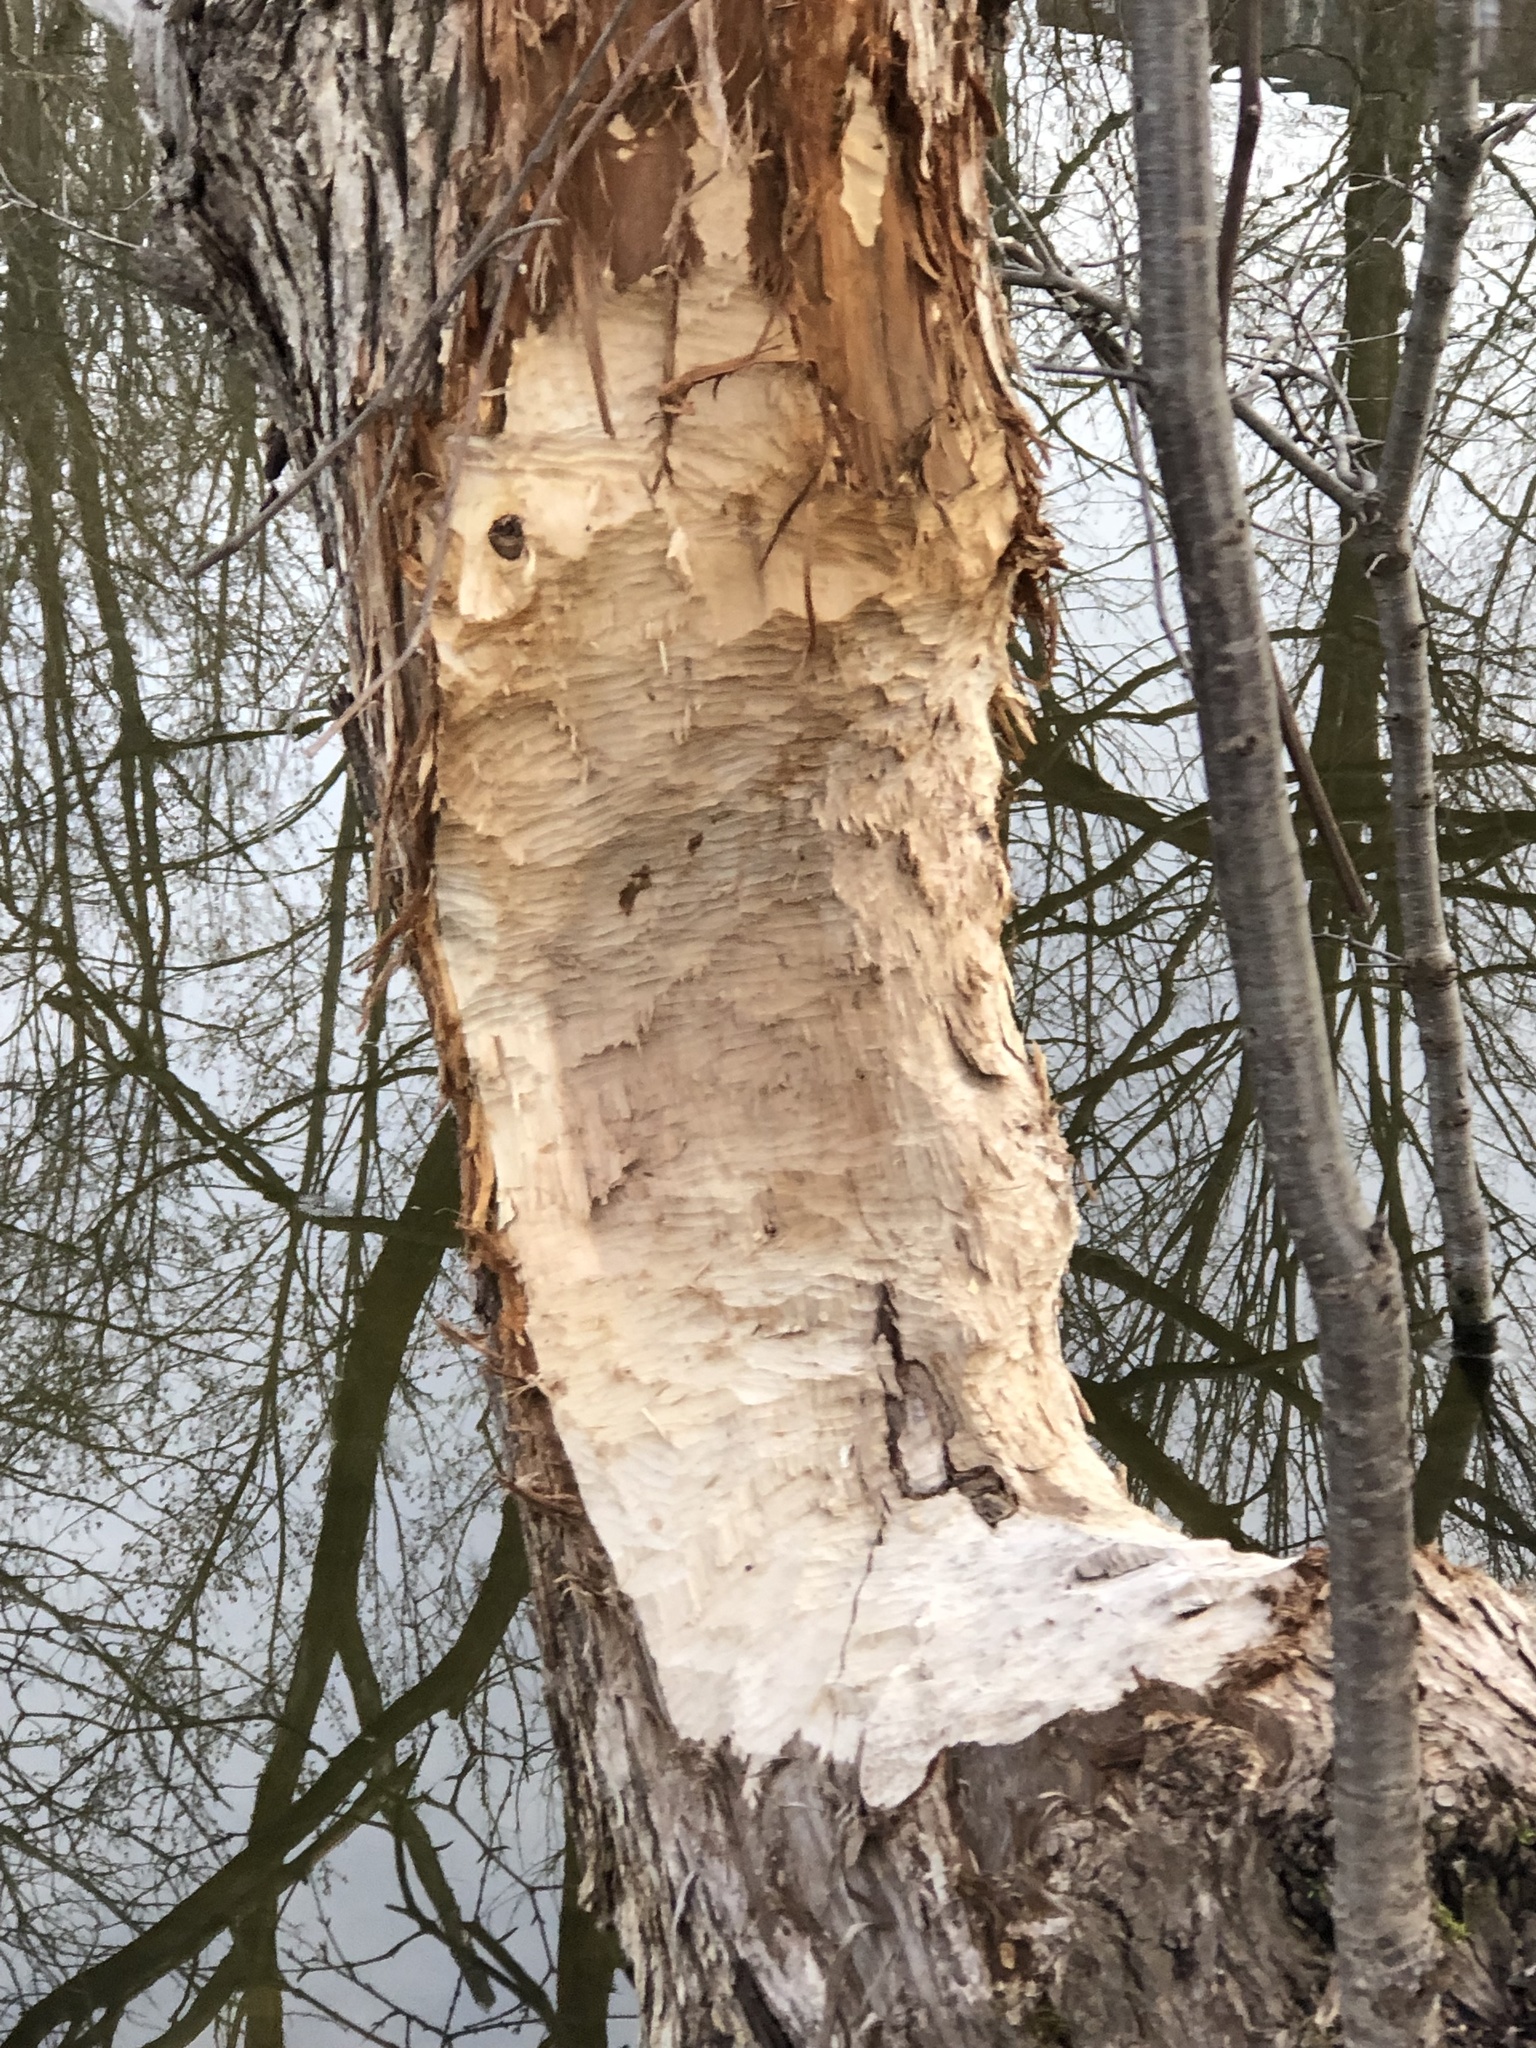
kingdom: Animalia
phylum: Chordata
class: Mammalia
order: Rodentia
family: Castoridae
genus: Castor
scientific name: Castor canadensis
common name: American beaver
